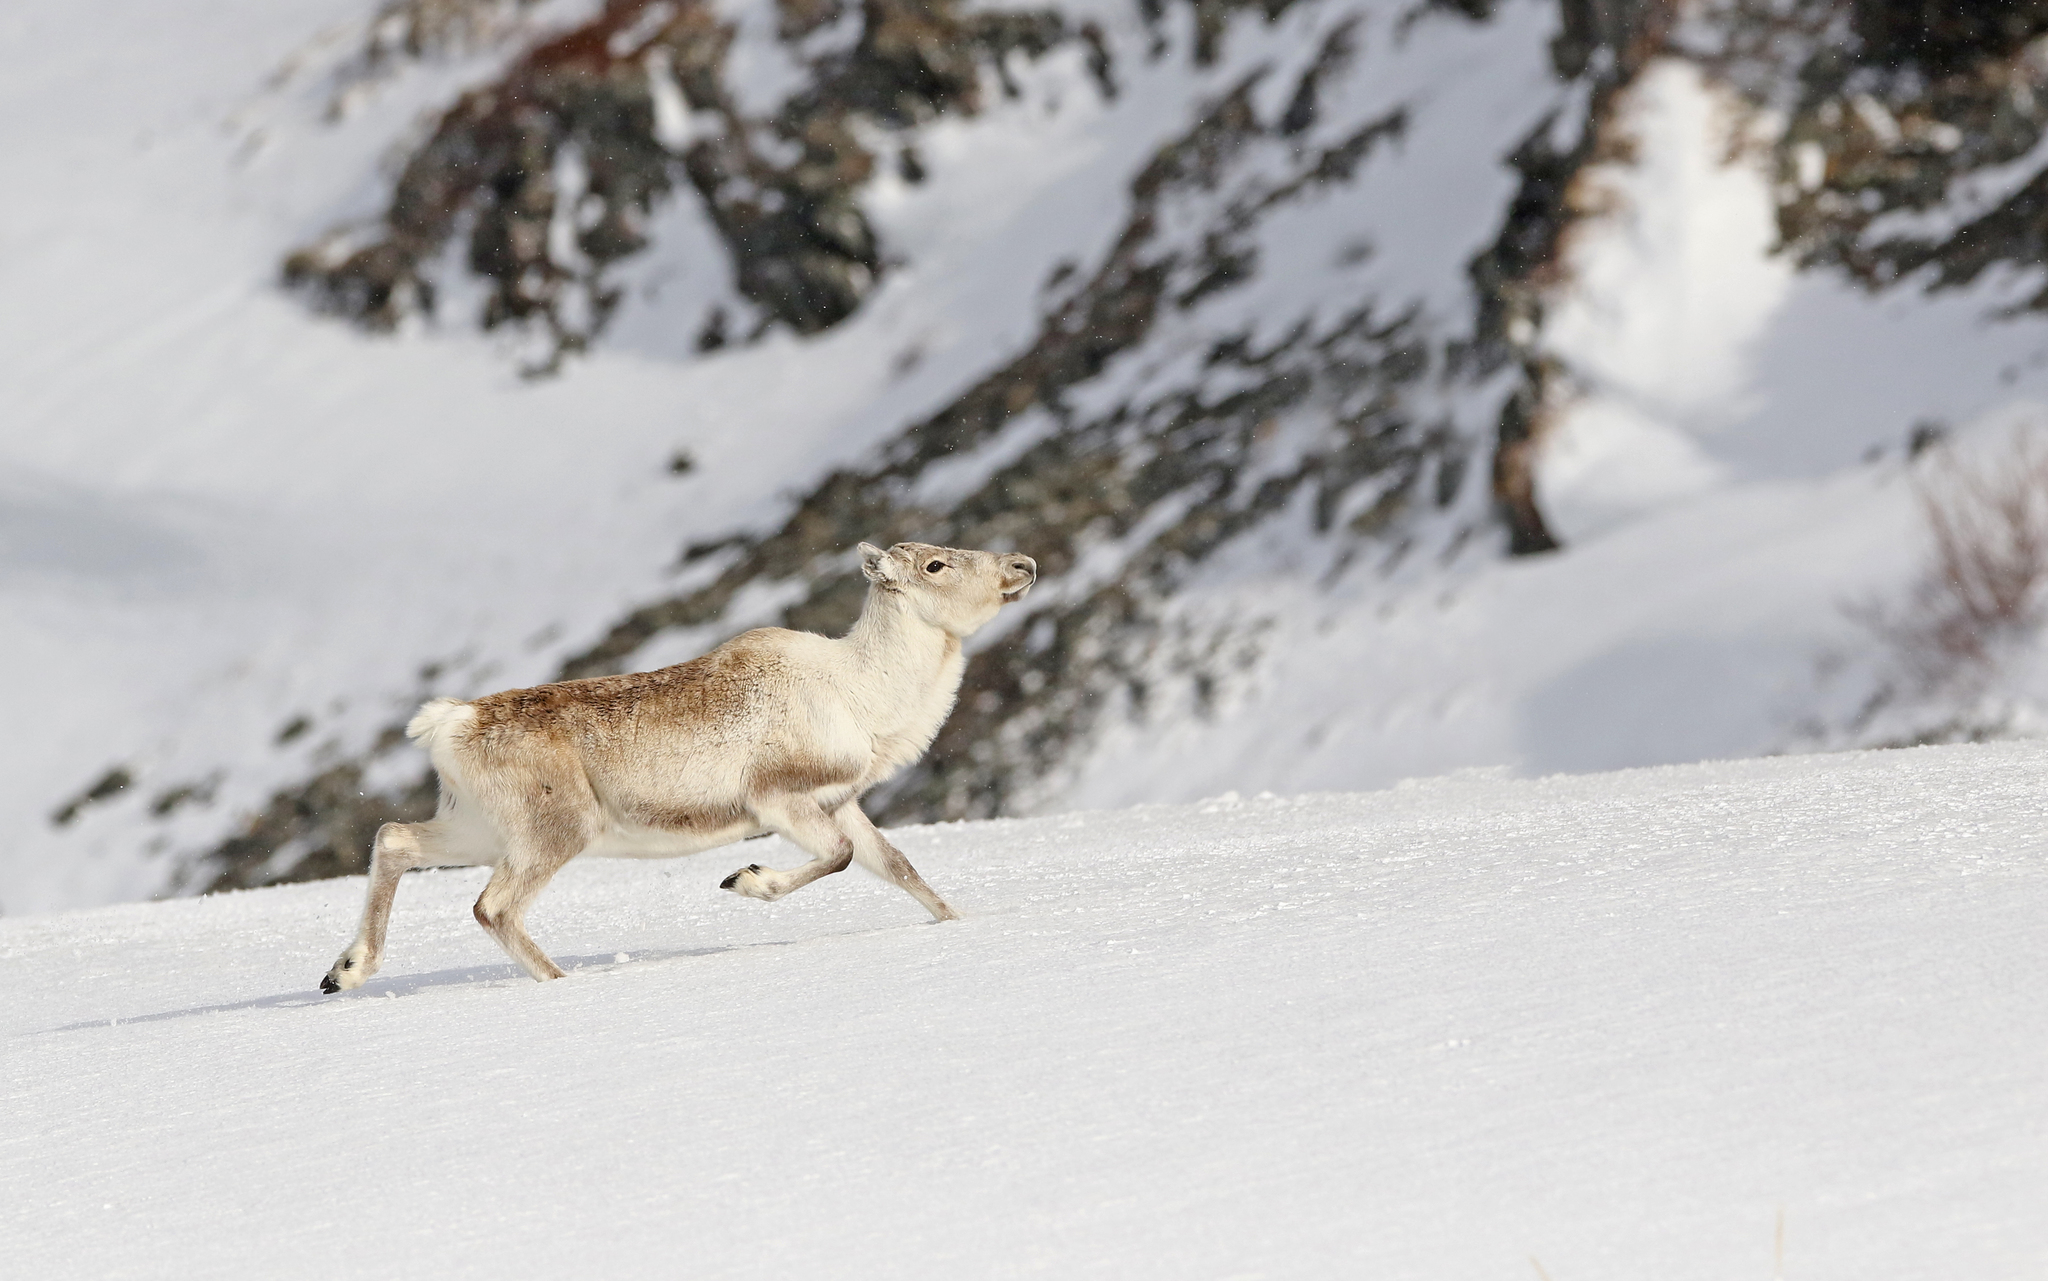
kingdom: Animalia
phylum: Chordata
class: Mammalia
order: Artiodactyla
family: Cervidae
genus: Rangifer
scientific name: Rangifer tarandus
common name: Reindeer
